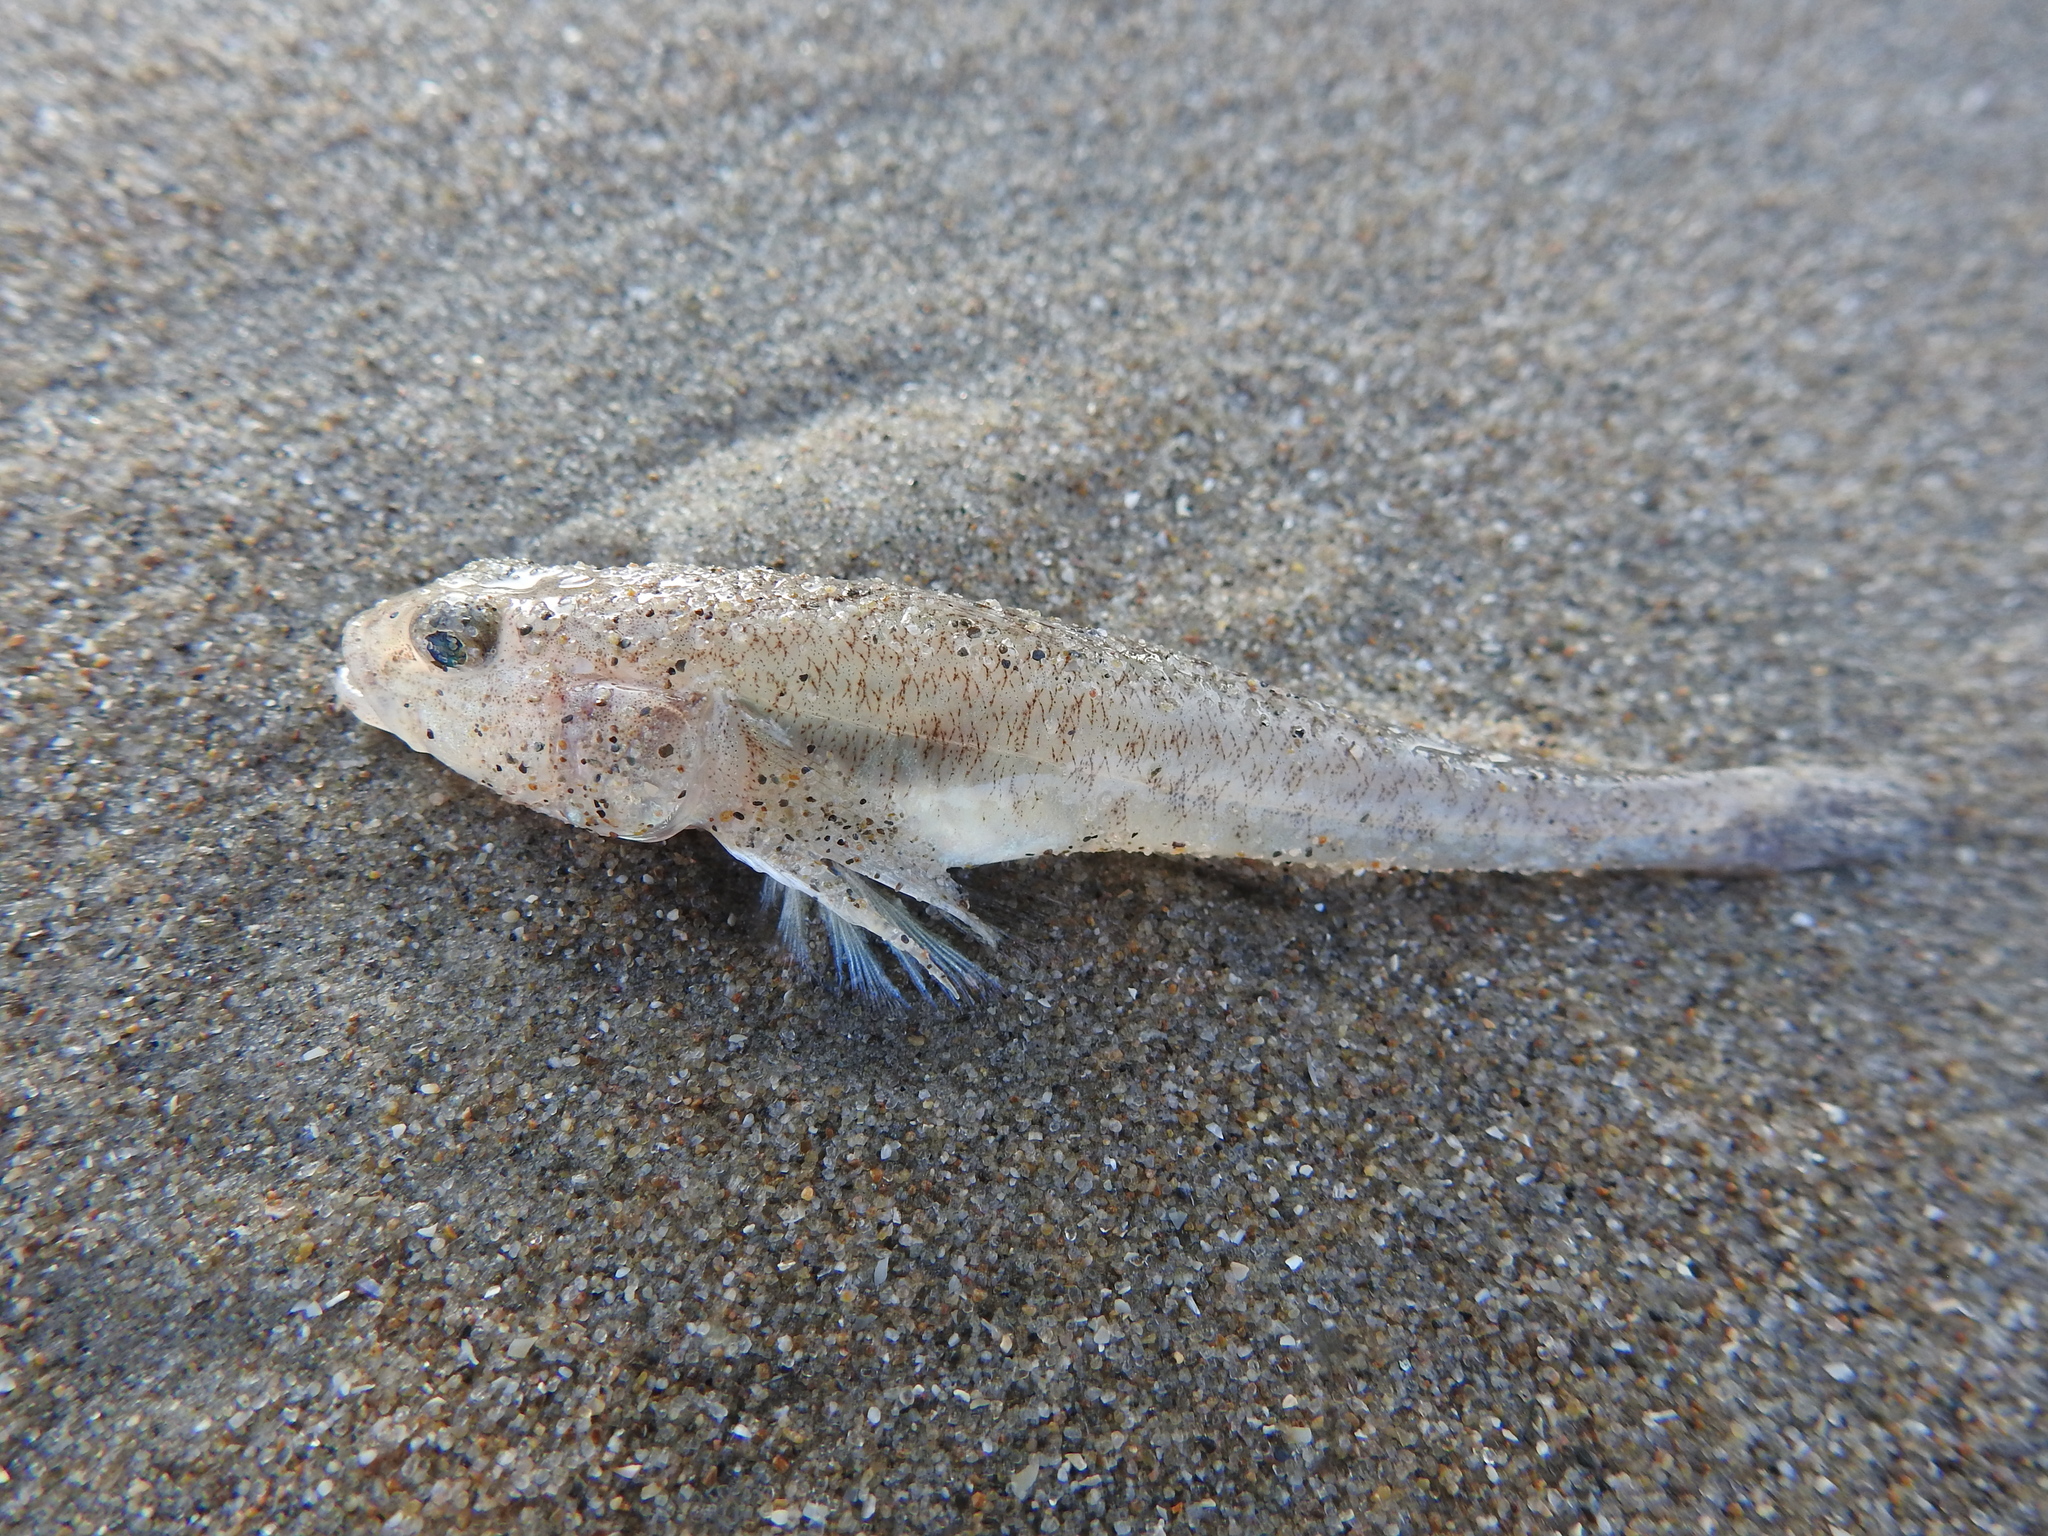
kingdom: Animalia
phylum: Chordata
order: Perciformes
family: Gobiidae
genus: Pomatoschistus
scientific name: Pomatoschistus minutus
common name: Sand goby
